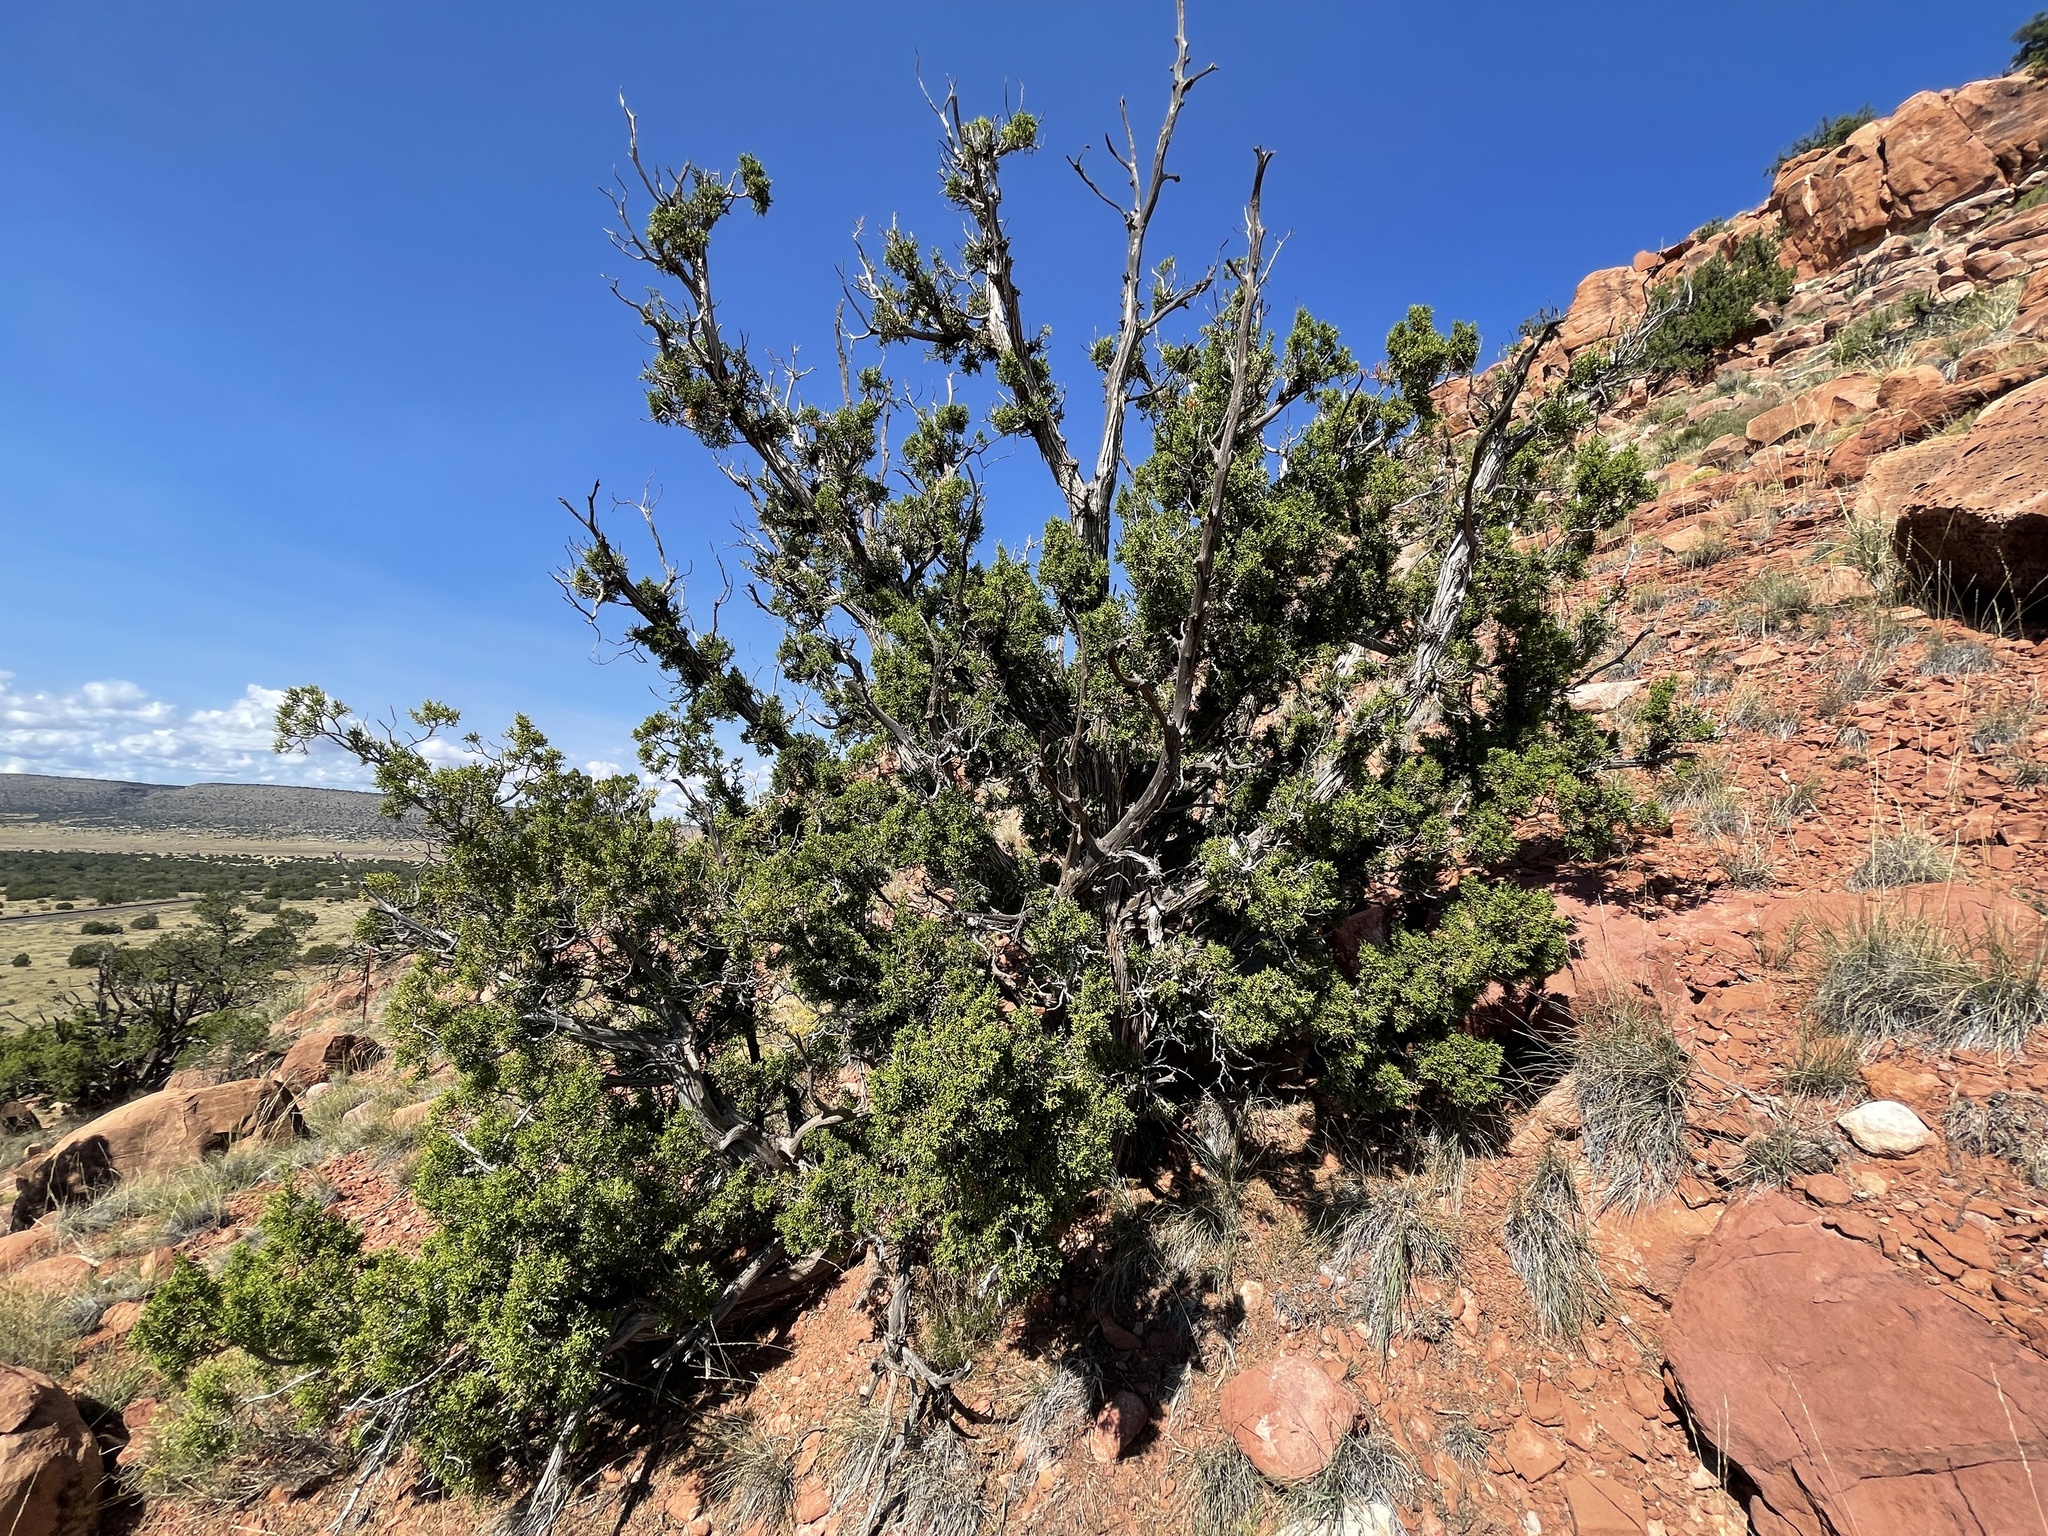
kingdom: Plantae
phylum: Tracheophyta
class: Pinopsida
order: Pinales
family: Cupressaceae
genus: Juniperus
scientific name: Juniperus osteosperma
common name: Utah juniper
